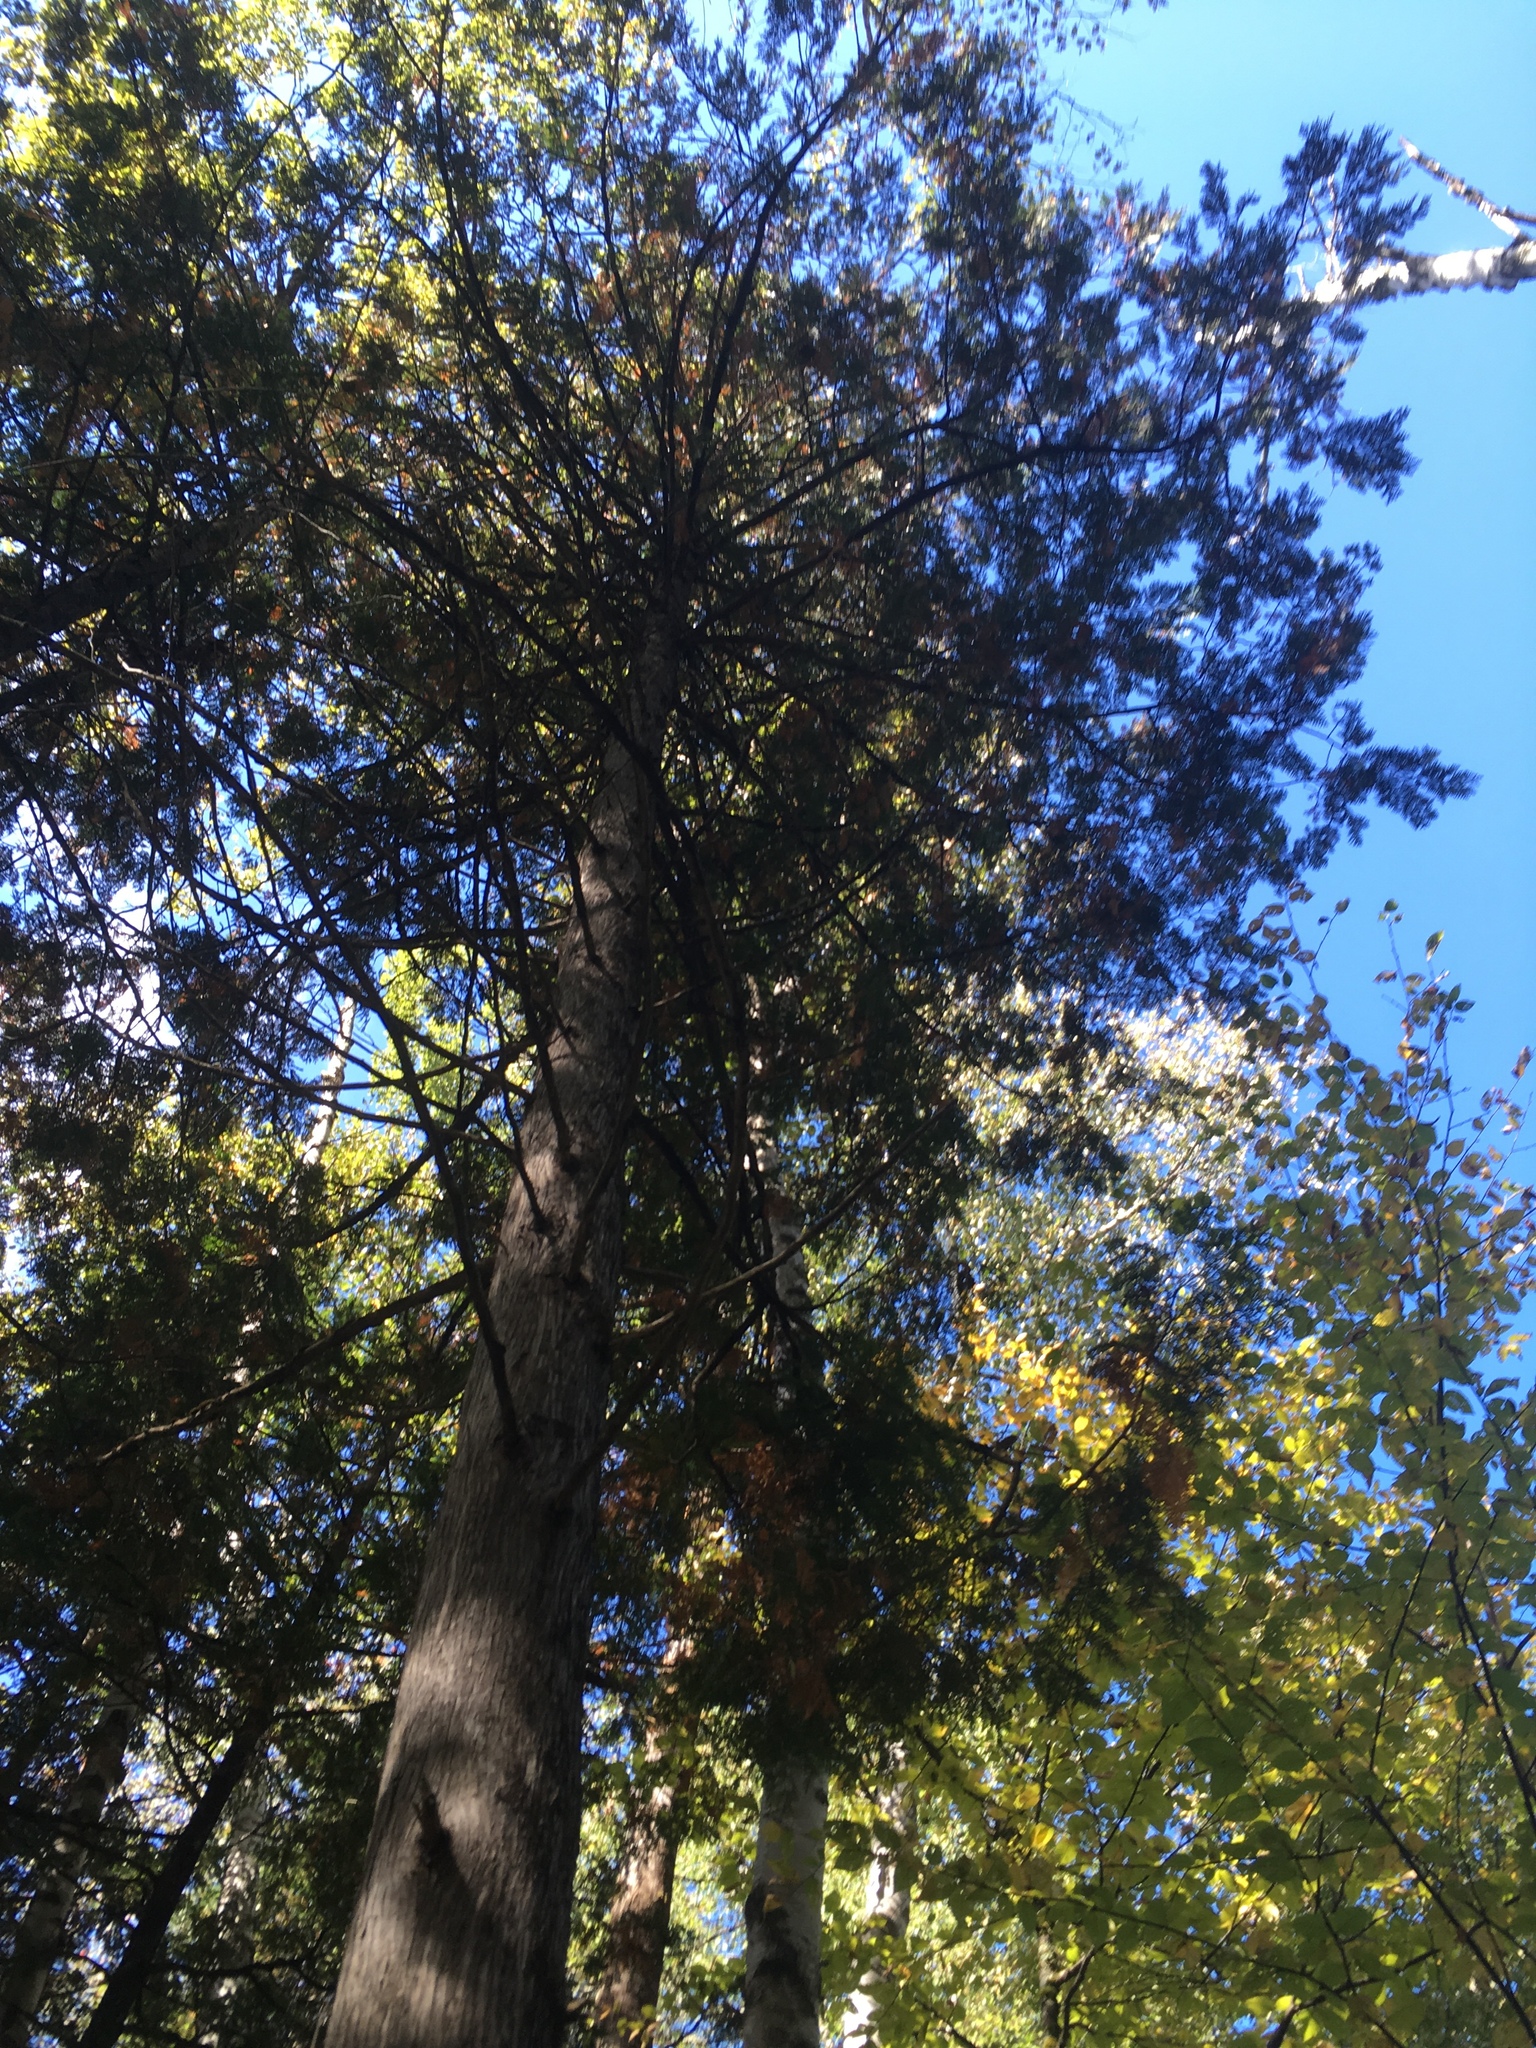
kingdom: Plantae
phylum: Tracheophyta
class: Pinopsida
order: Pinales
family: Cupressaceae
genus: Thuja
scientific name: Thuja occidentalis
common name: Northern white-cedar
